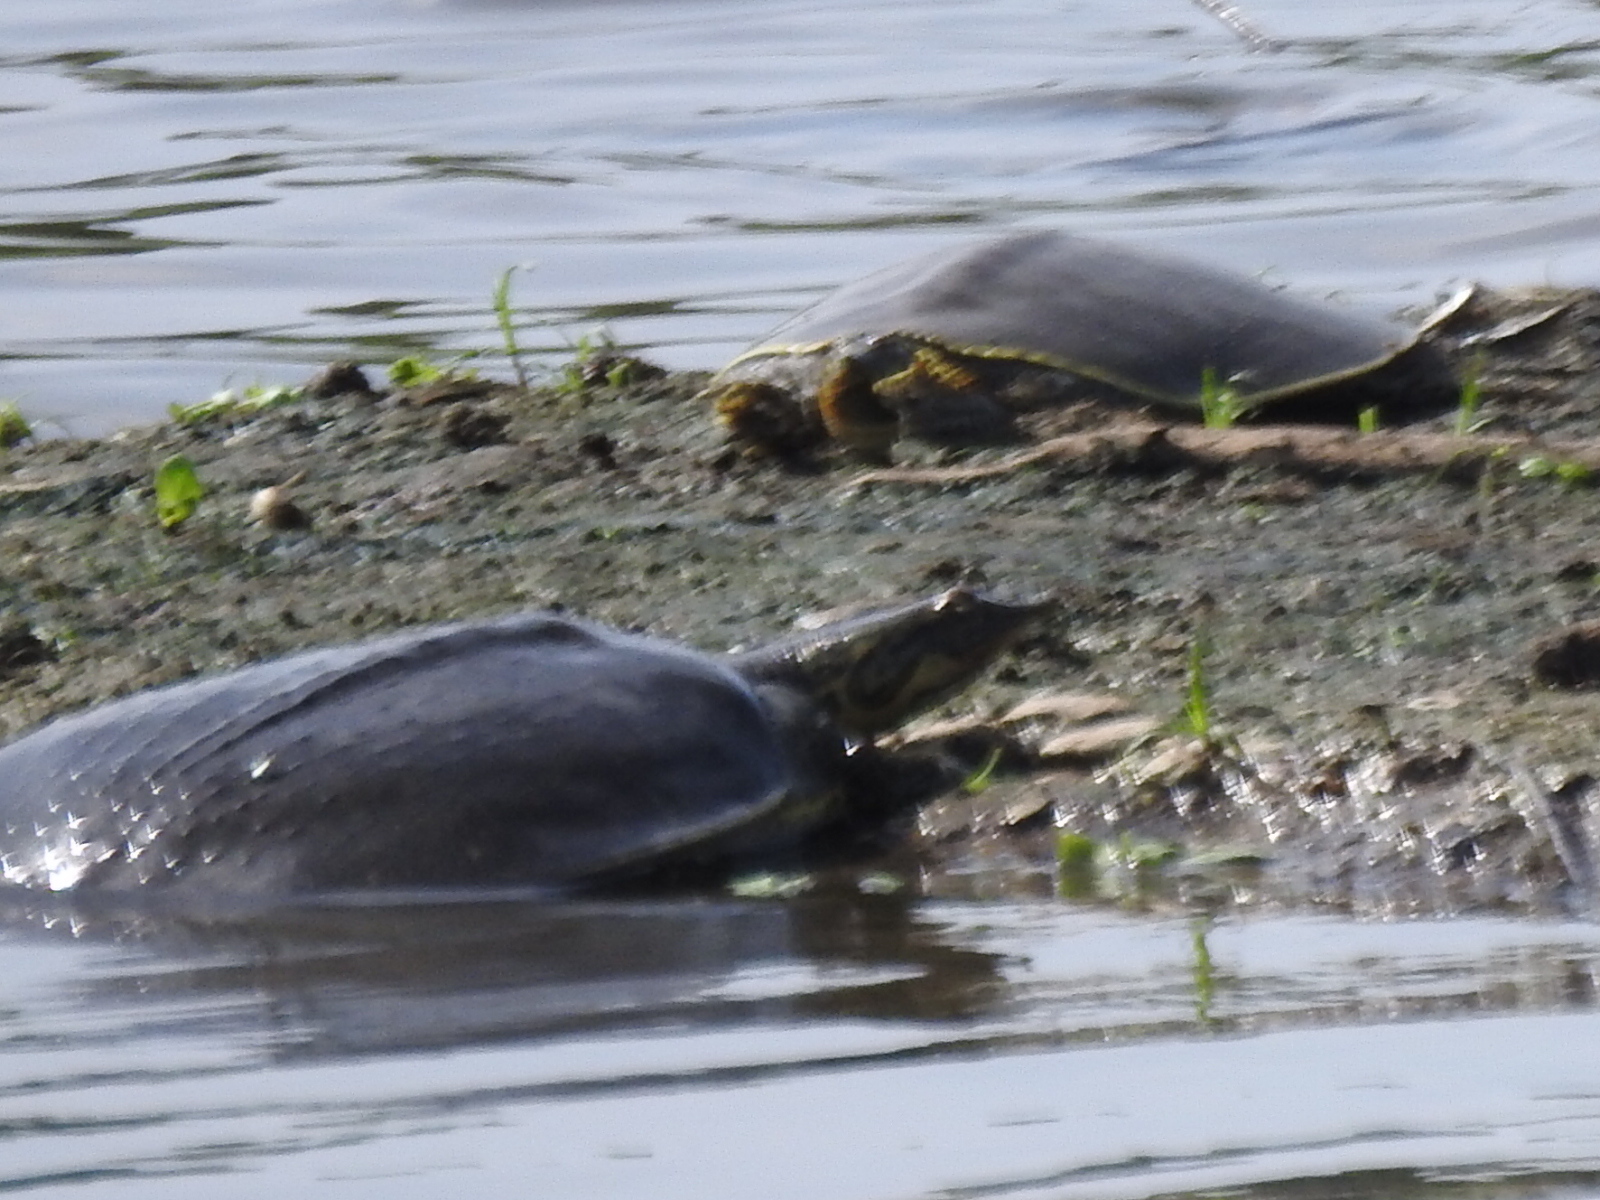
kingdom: Animalia
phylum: Chordata
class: Testudines
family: Trionychidae
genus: Apalone
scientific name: Apalone spinifera
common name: Spiny softshell turtle
